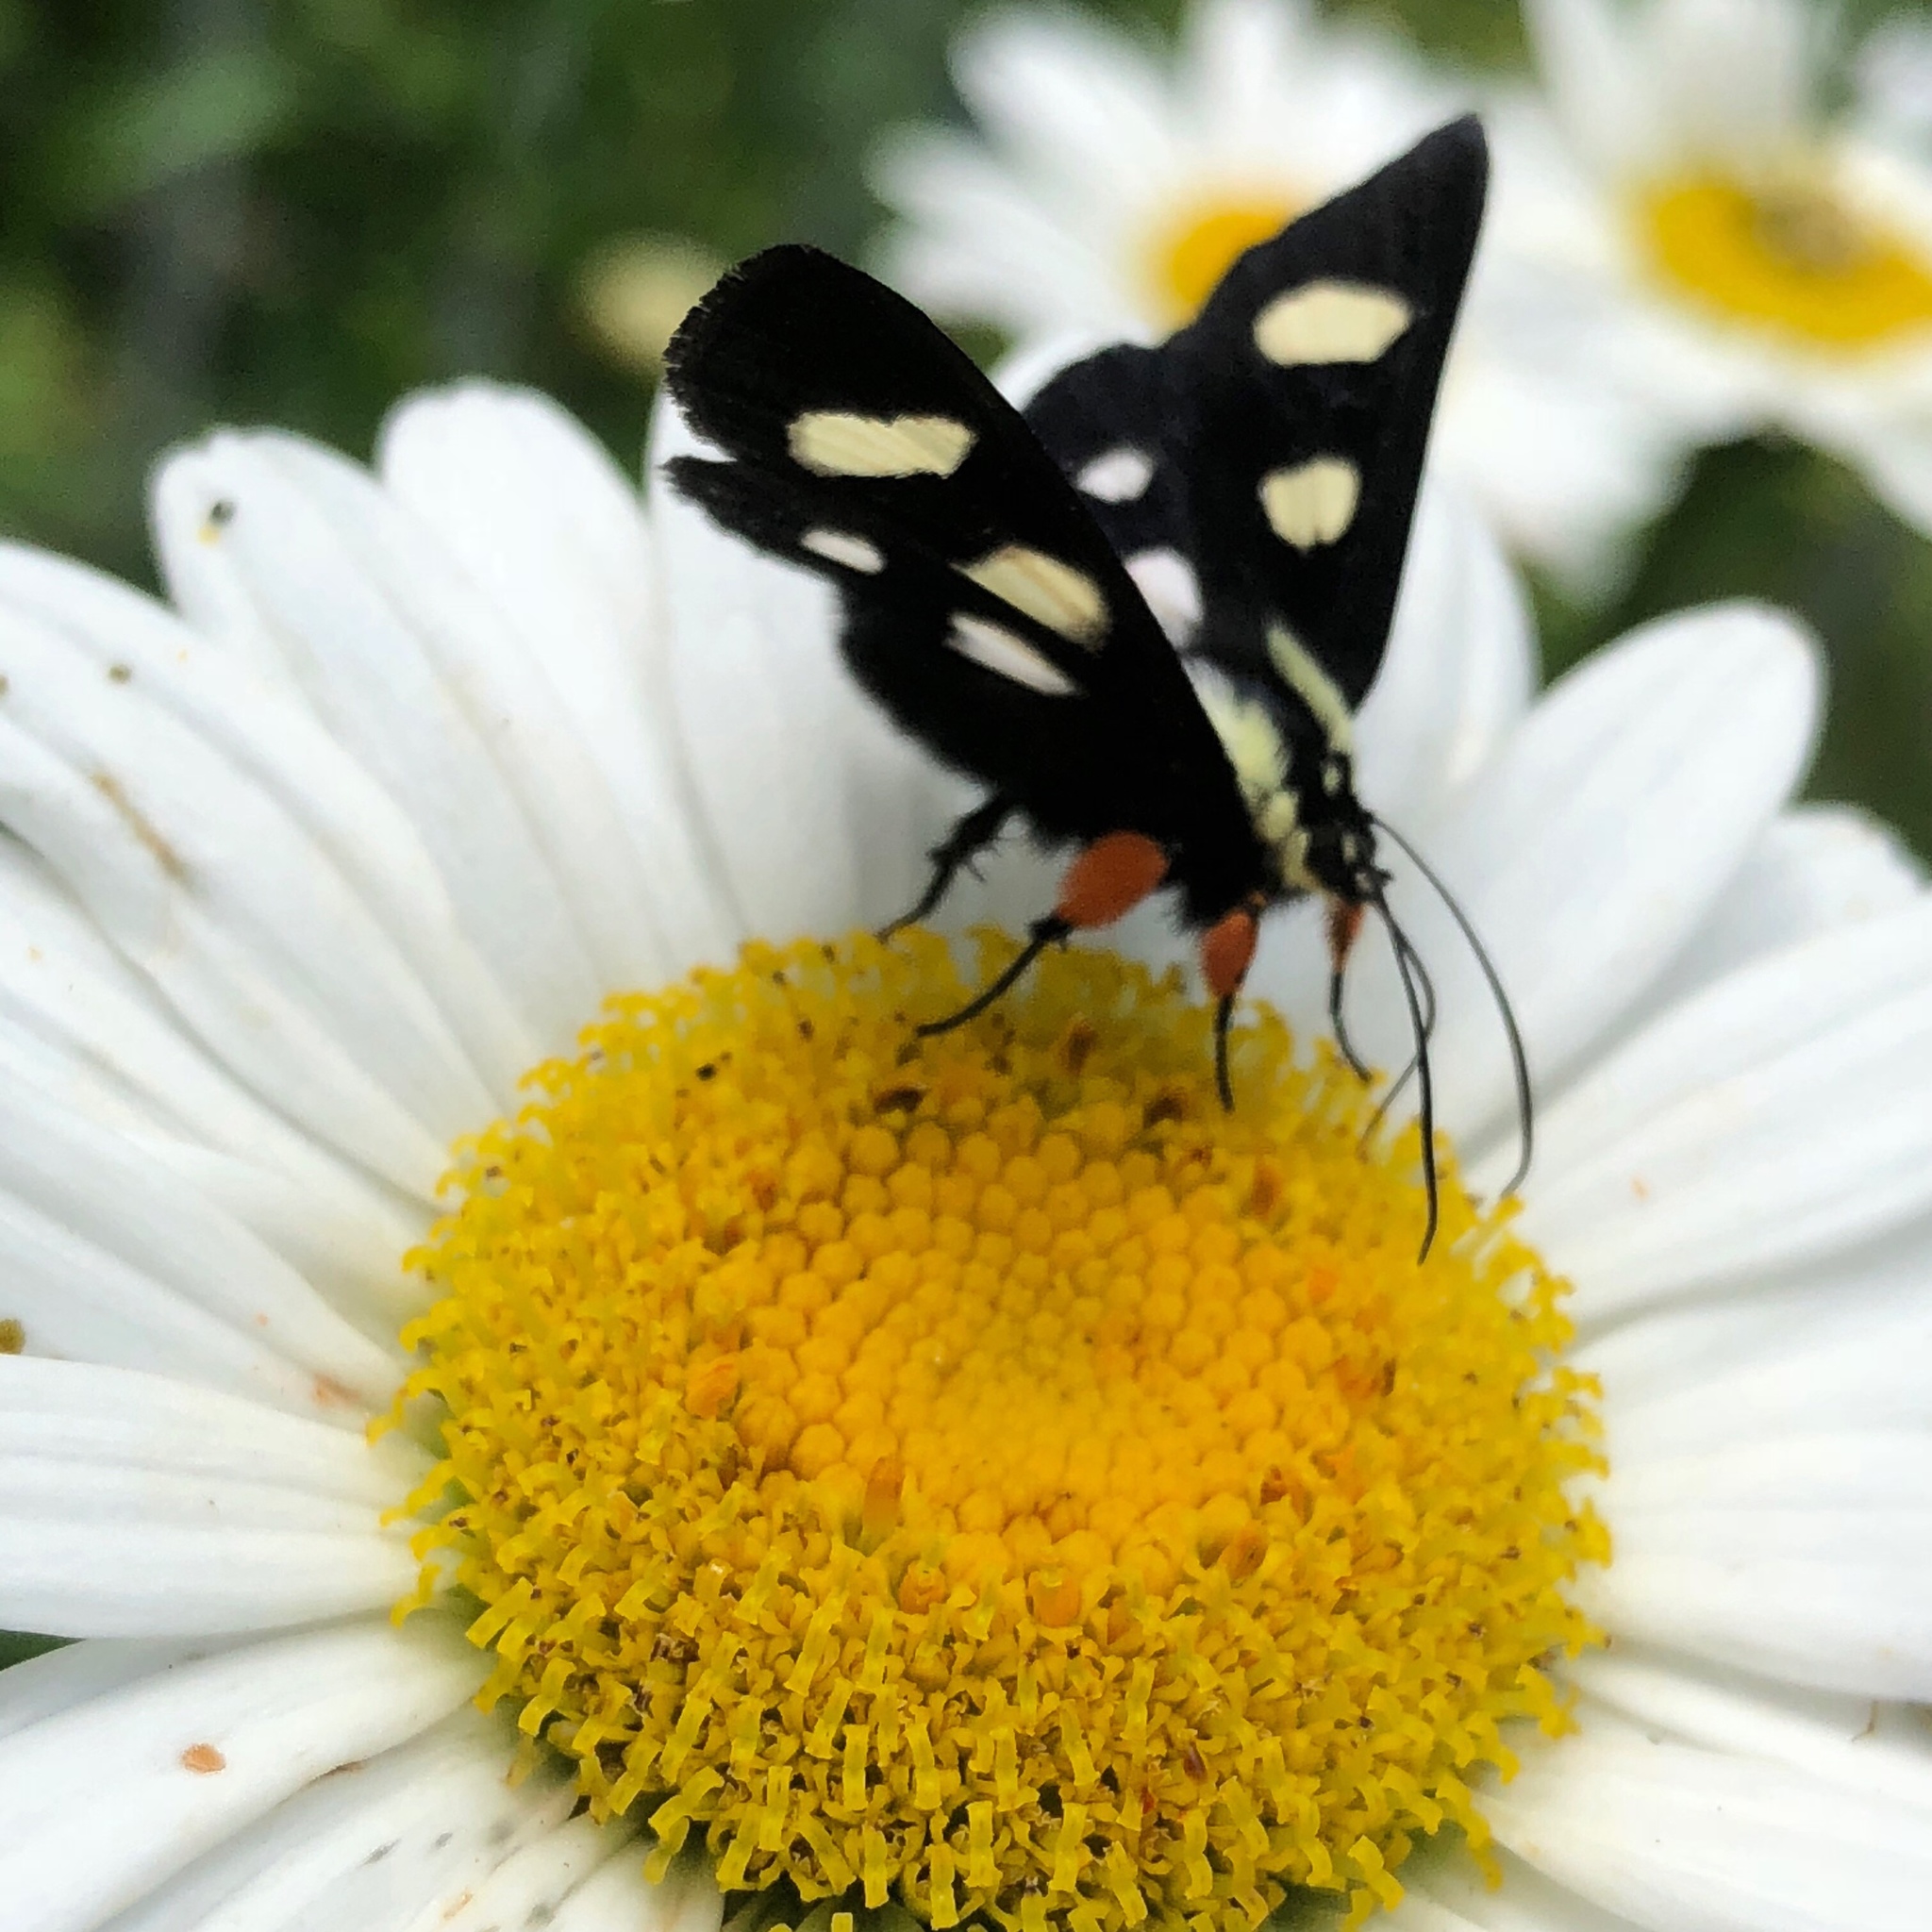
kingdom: Animalia
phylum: Arthropoda
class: Insecta
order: Lepidoptera
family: Noctuidae
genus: Alypia
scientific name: Alypia octomaculata
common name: Eight-spotted forester
